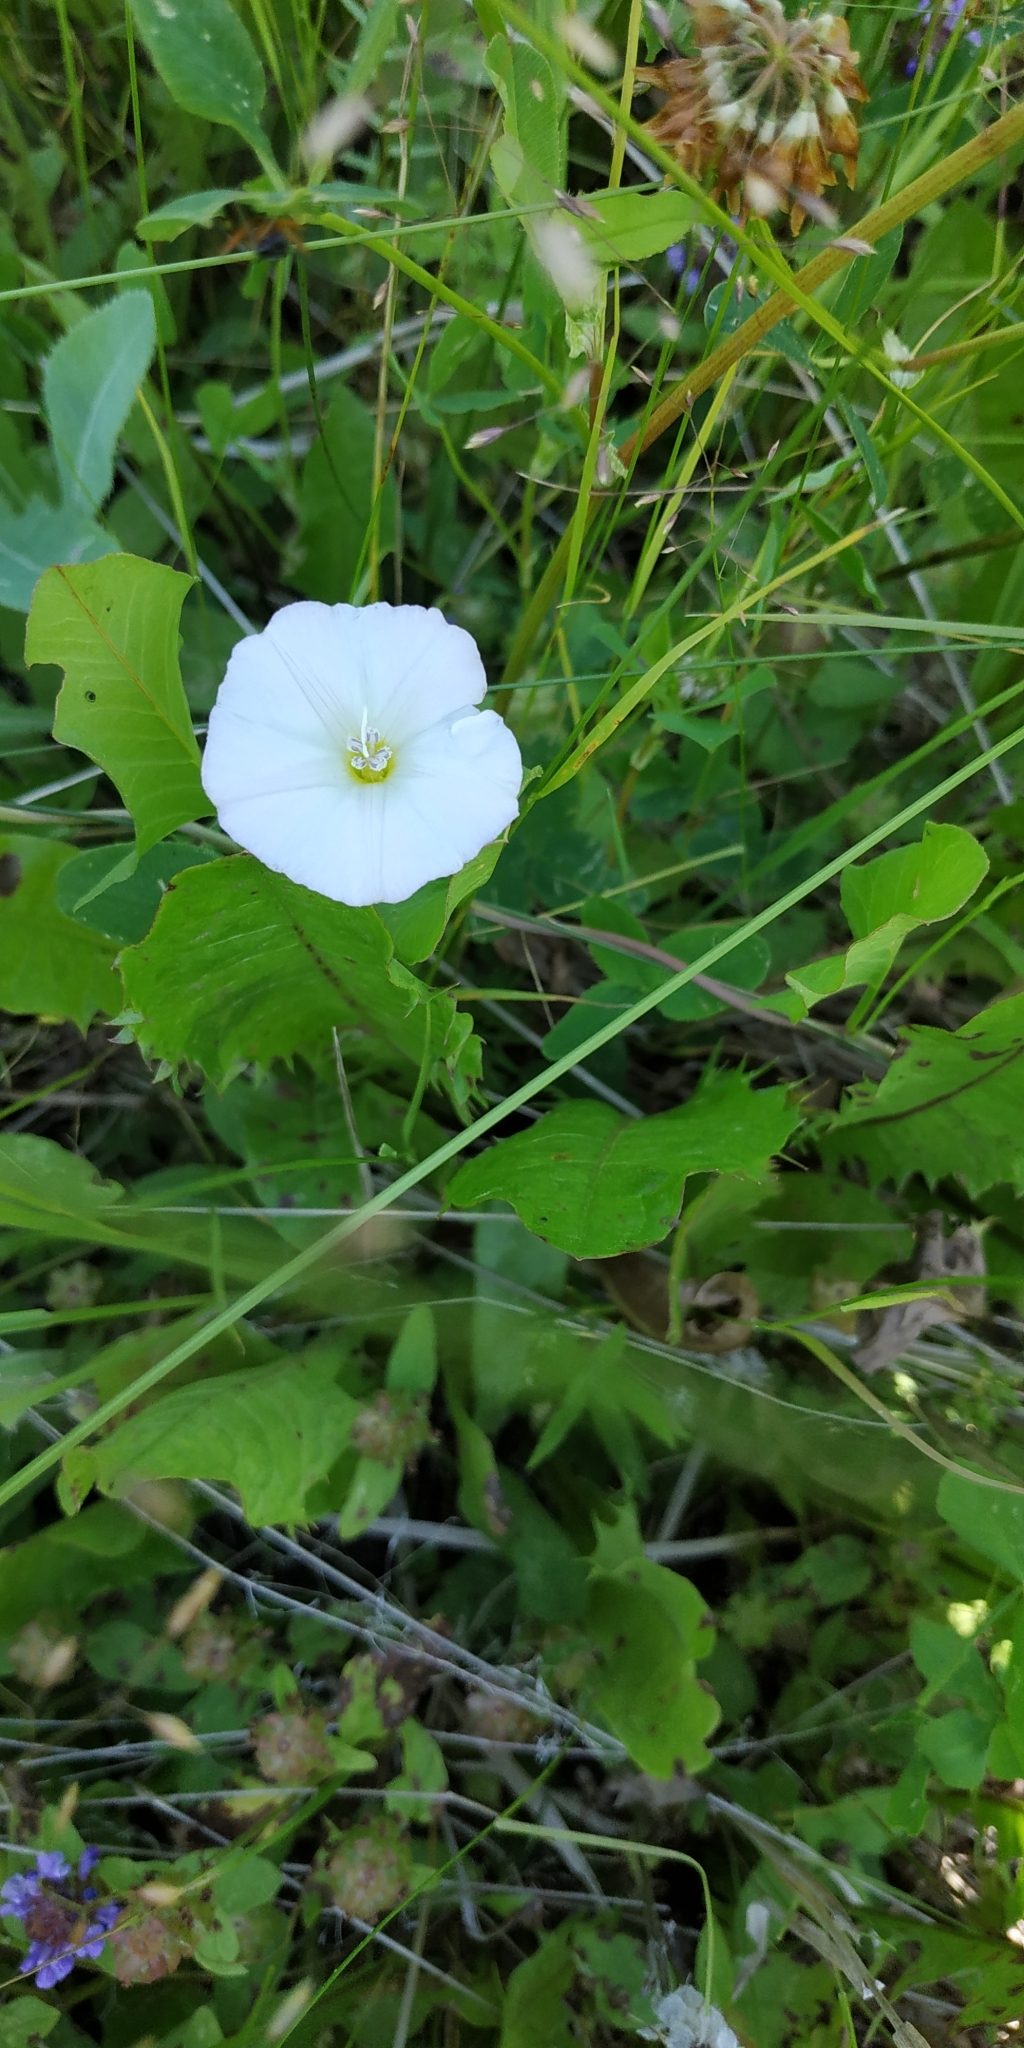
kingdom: Plantae
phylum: Tracheophyta
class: Magnoliopsida
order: Solanales
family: Convolvulaceae
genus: Convolvulus
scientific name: Convolvulus arvensis
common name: Field bindweed
